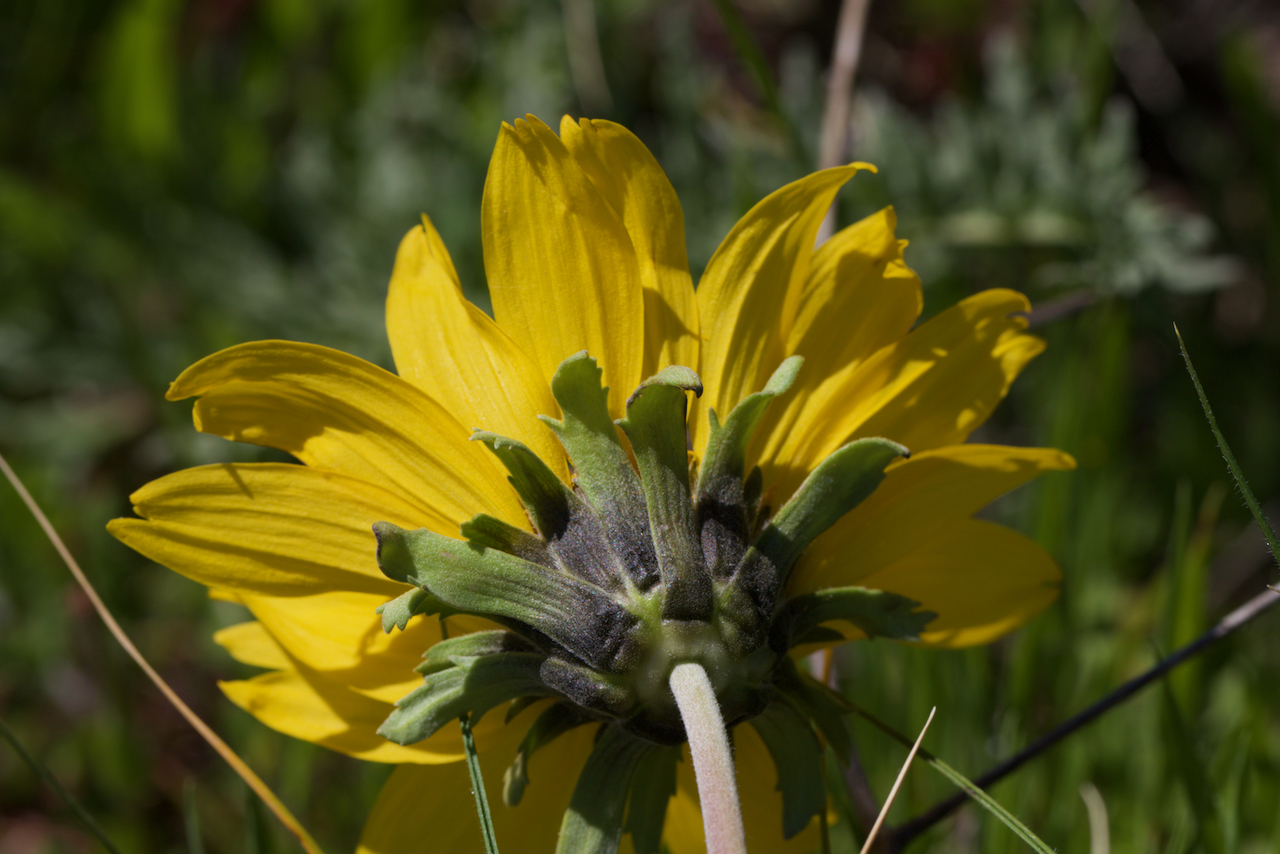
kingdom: Plantae
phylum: Tracheophyta
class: Magnoliopsida
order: Asterales
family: Asteraceae
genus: Balsamorhiza
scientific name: Balsamorhiza macrolepis
